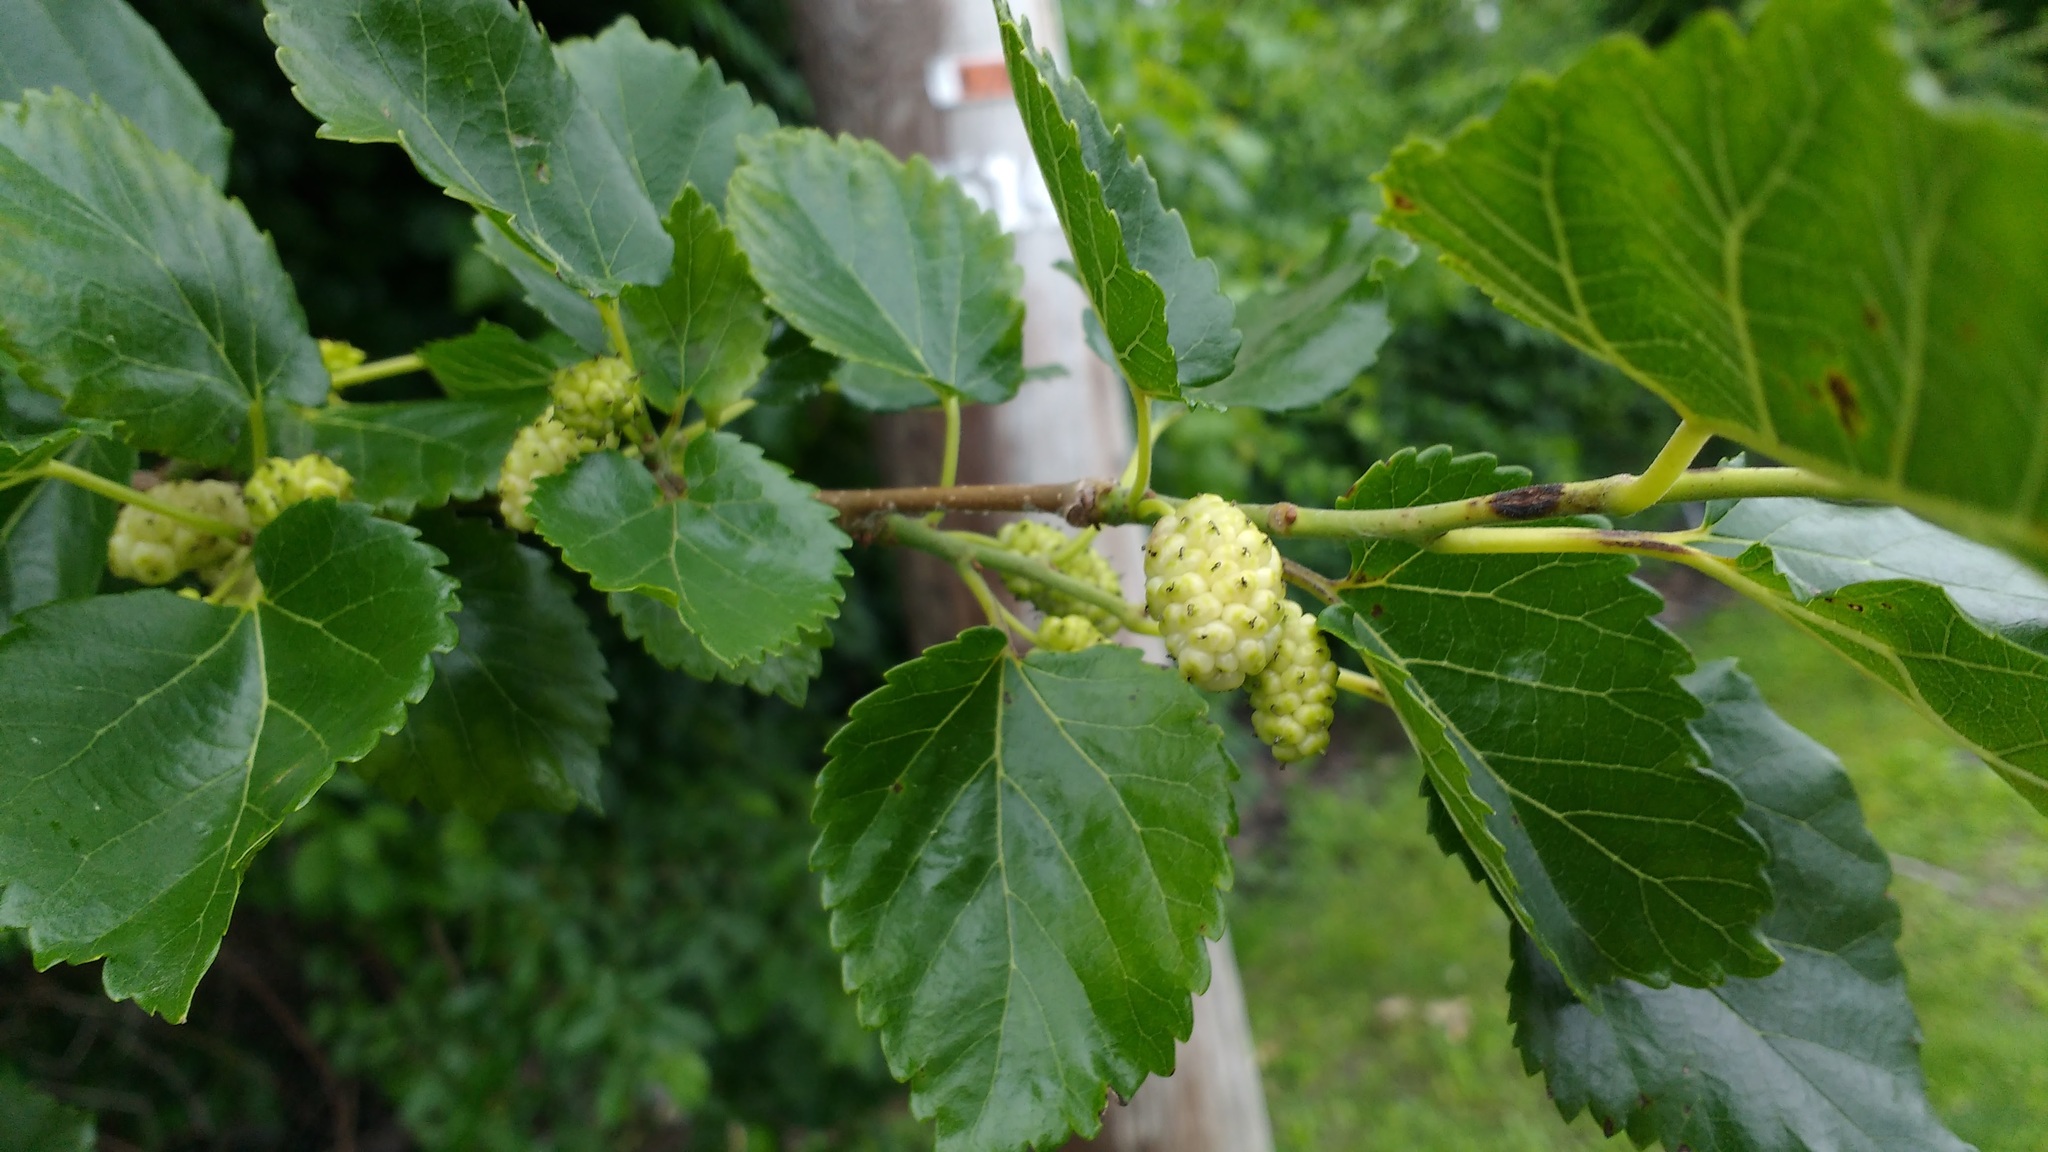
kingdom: Plantae
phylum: Tracheophyta
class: Magnoliopsida
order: Rosales
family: Moraceae
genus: Morus
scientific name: Morus alba
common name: White mulberry
